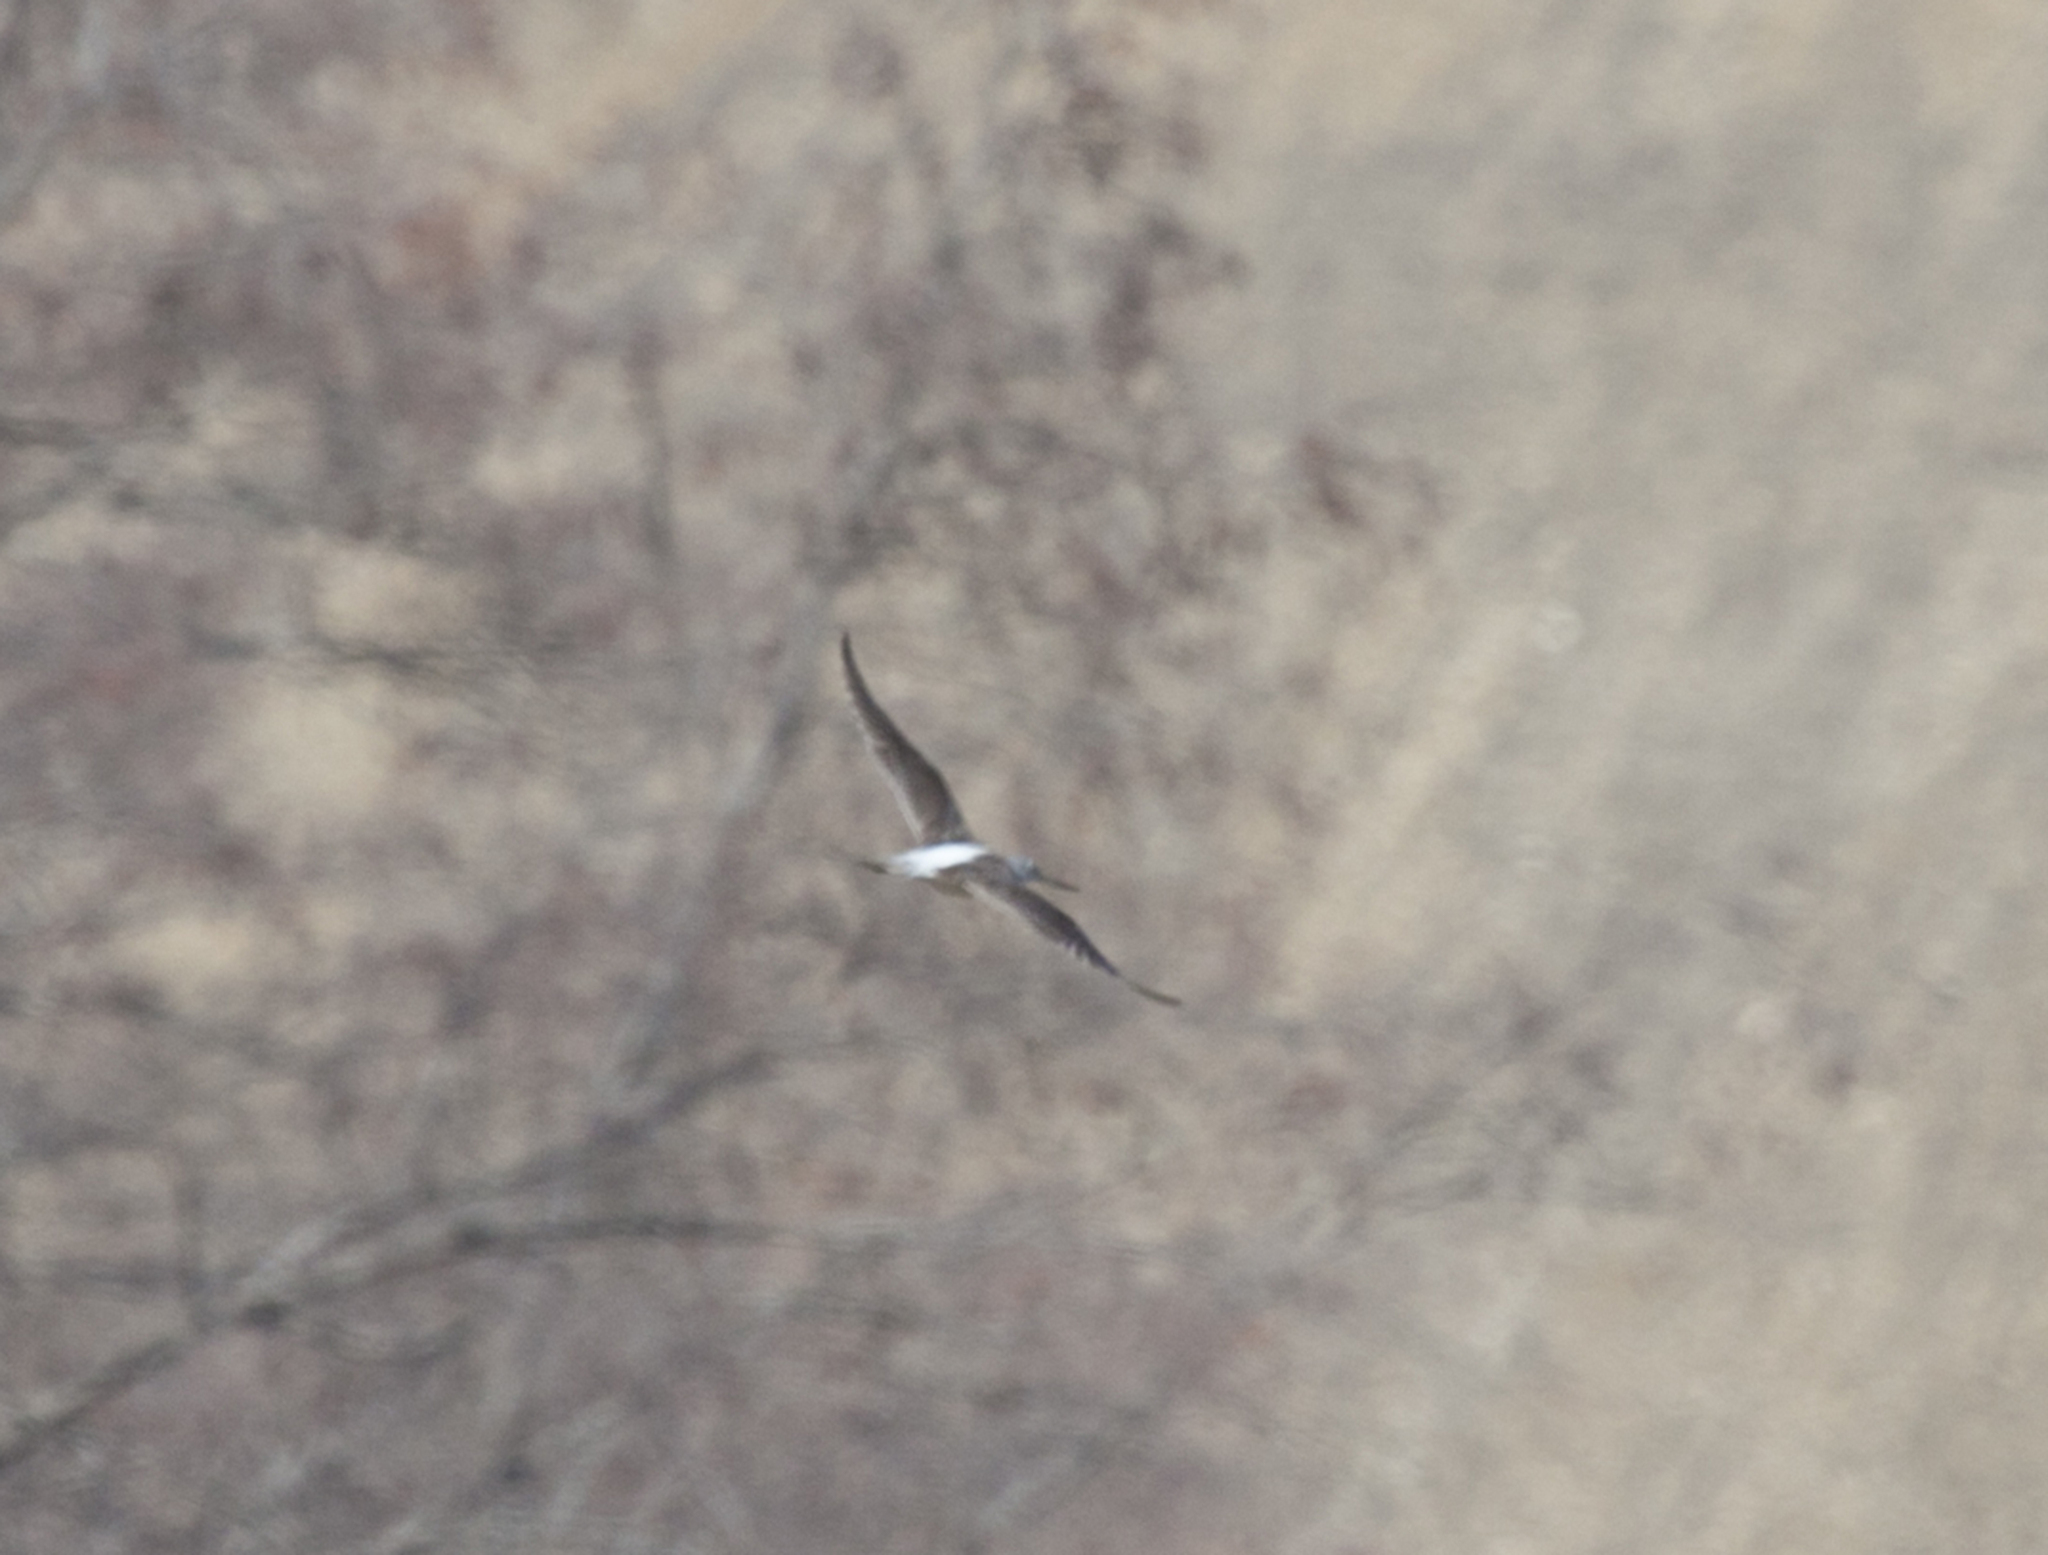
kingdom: Animalia
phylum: Chordata
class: Aves
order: Charadriiformes
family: Scolopacidae
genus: Tringa
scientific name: Tringa nebularia
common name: Common greenshank
